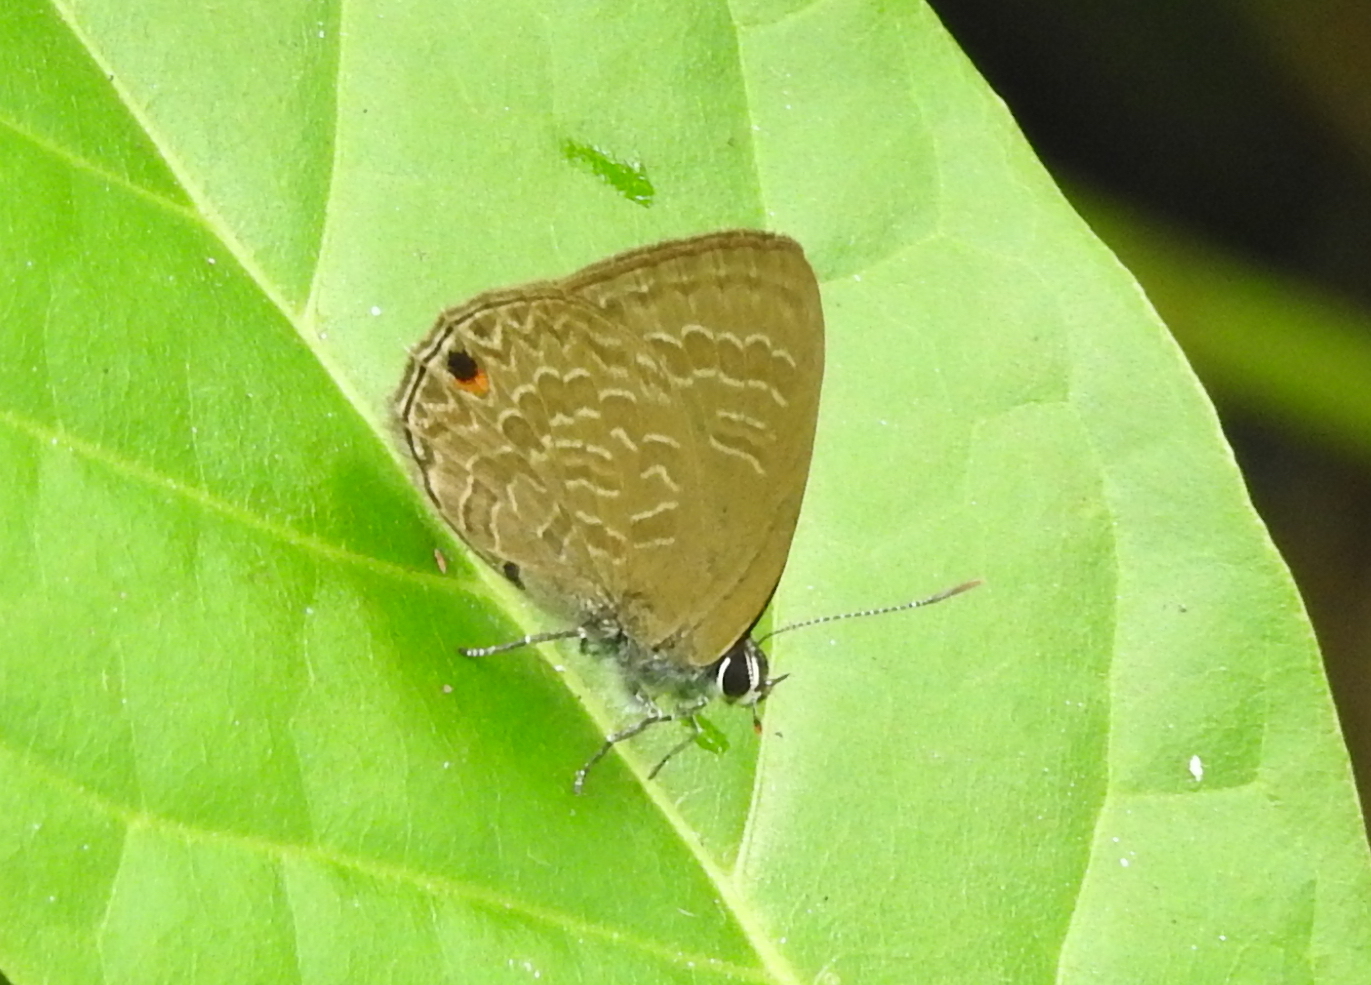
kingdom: Animalia
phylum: Arthropoda
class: Insecta
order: Lepidoptera
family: Lycaenidae
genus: Anthene
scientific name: Anthene emolus
